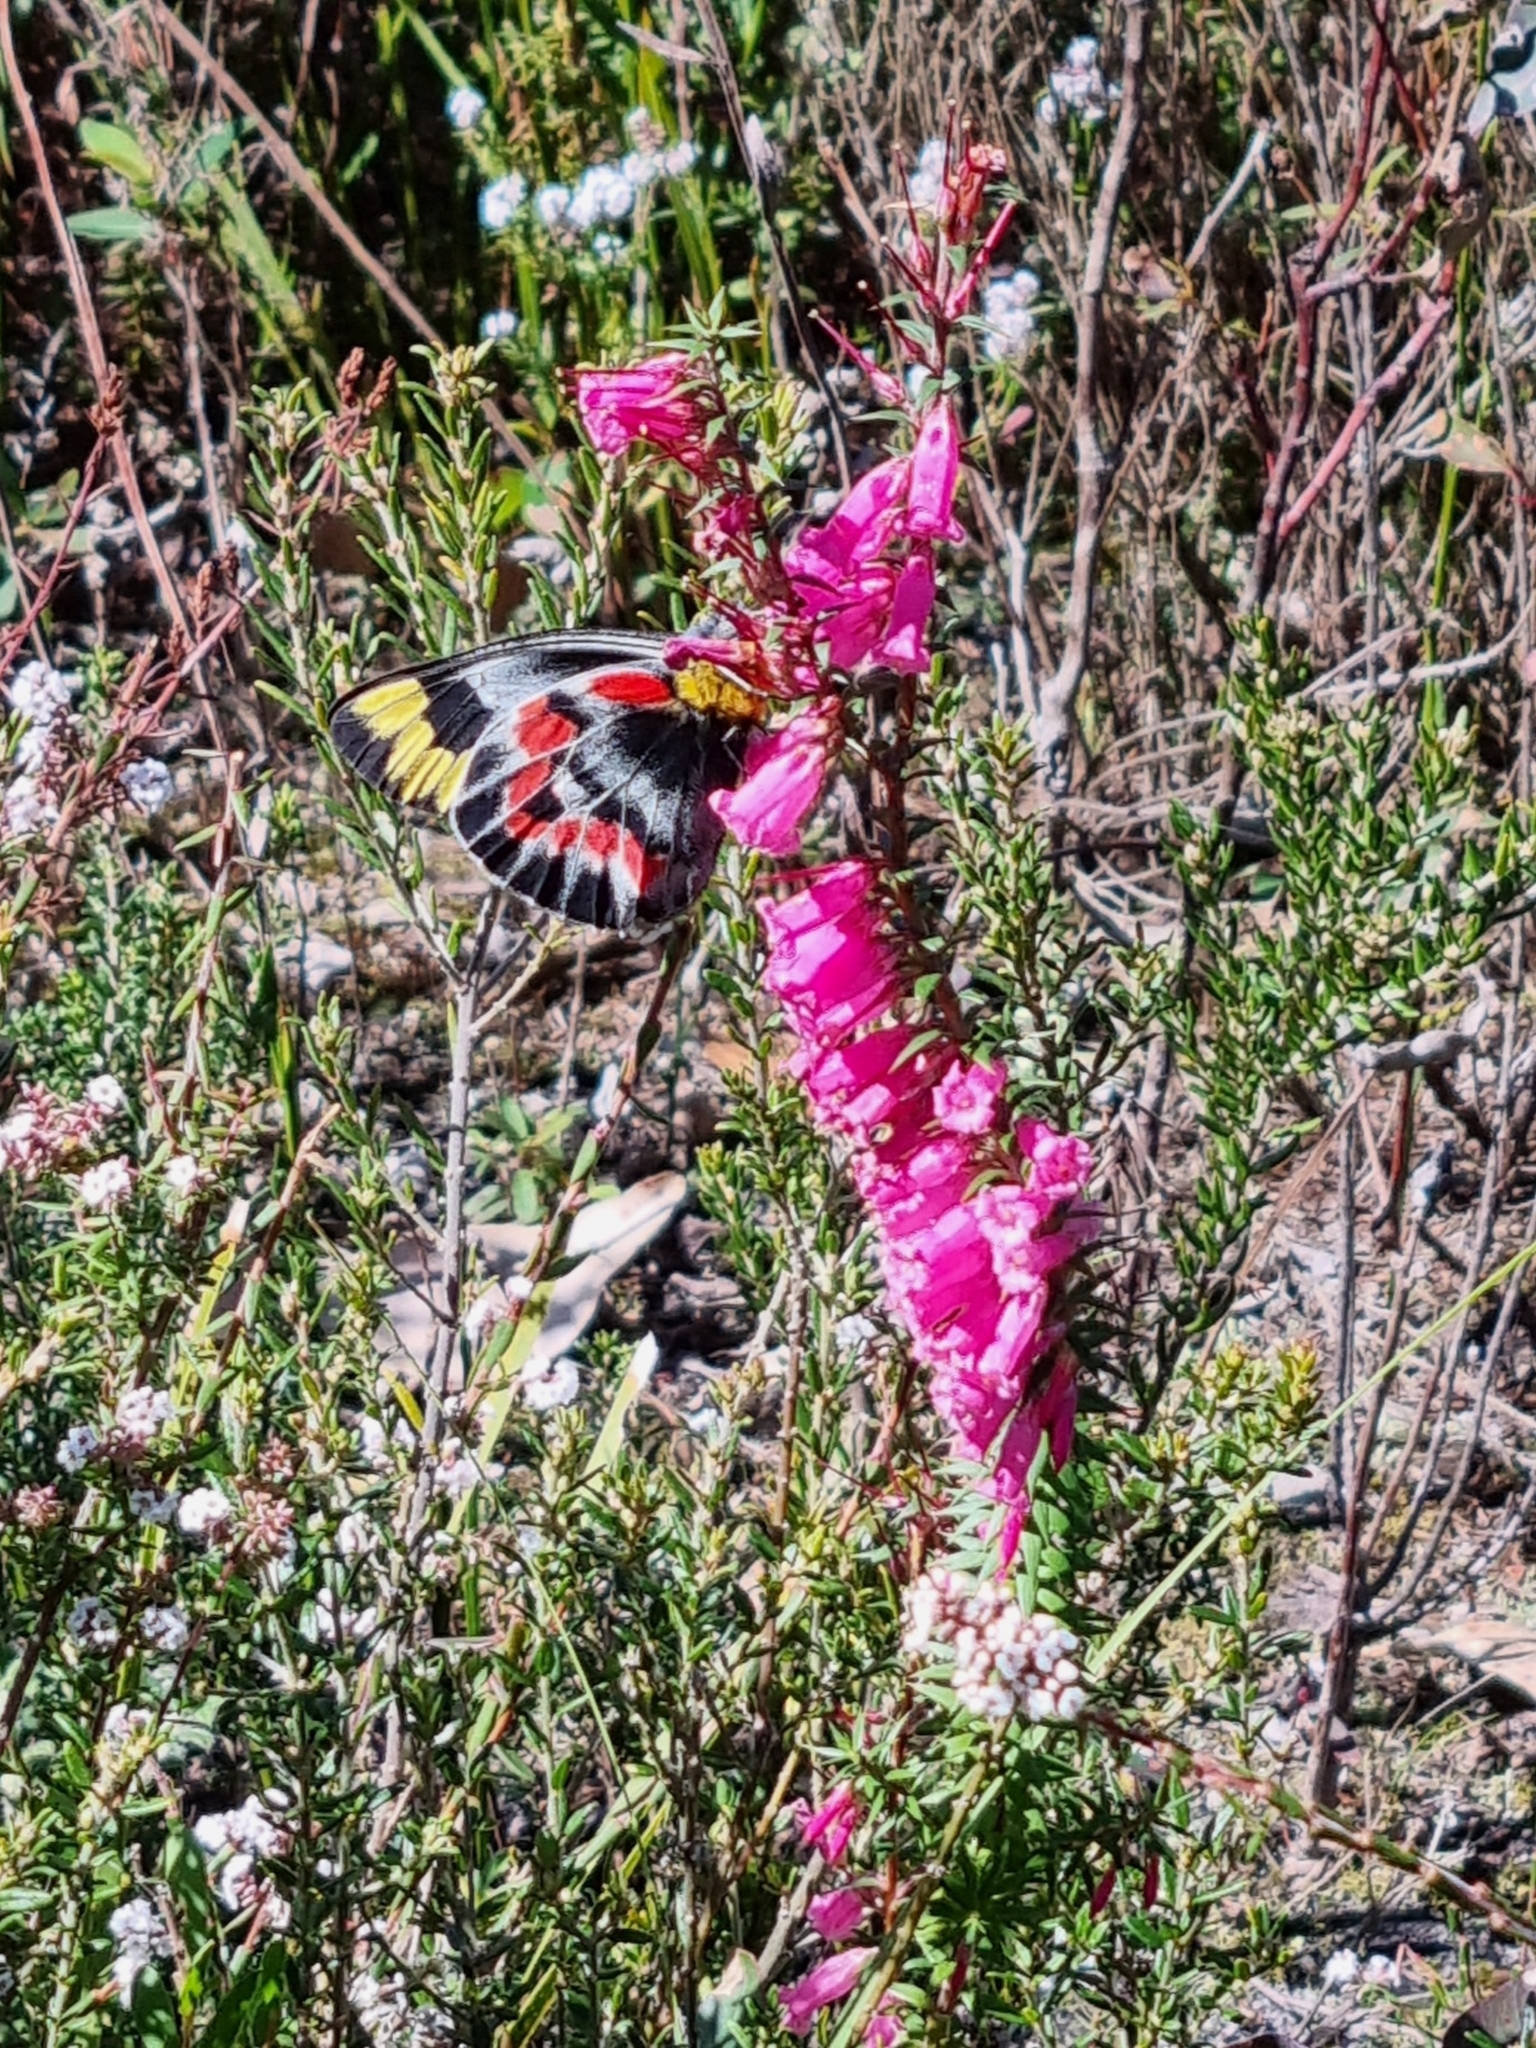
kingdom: Animalia
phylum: Arthropoda
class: Insecta
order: Lepidoptera
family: Pieridae
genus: Delias
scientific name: Delias harpalyce
